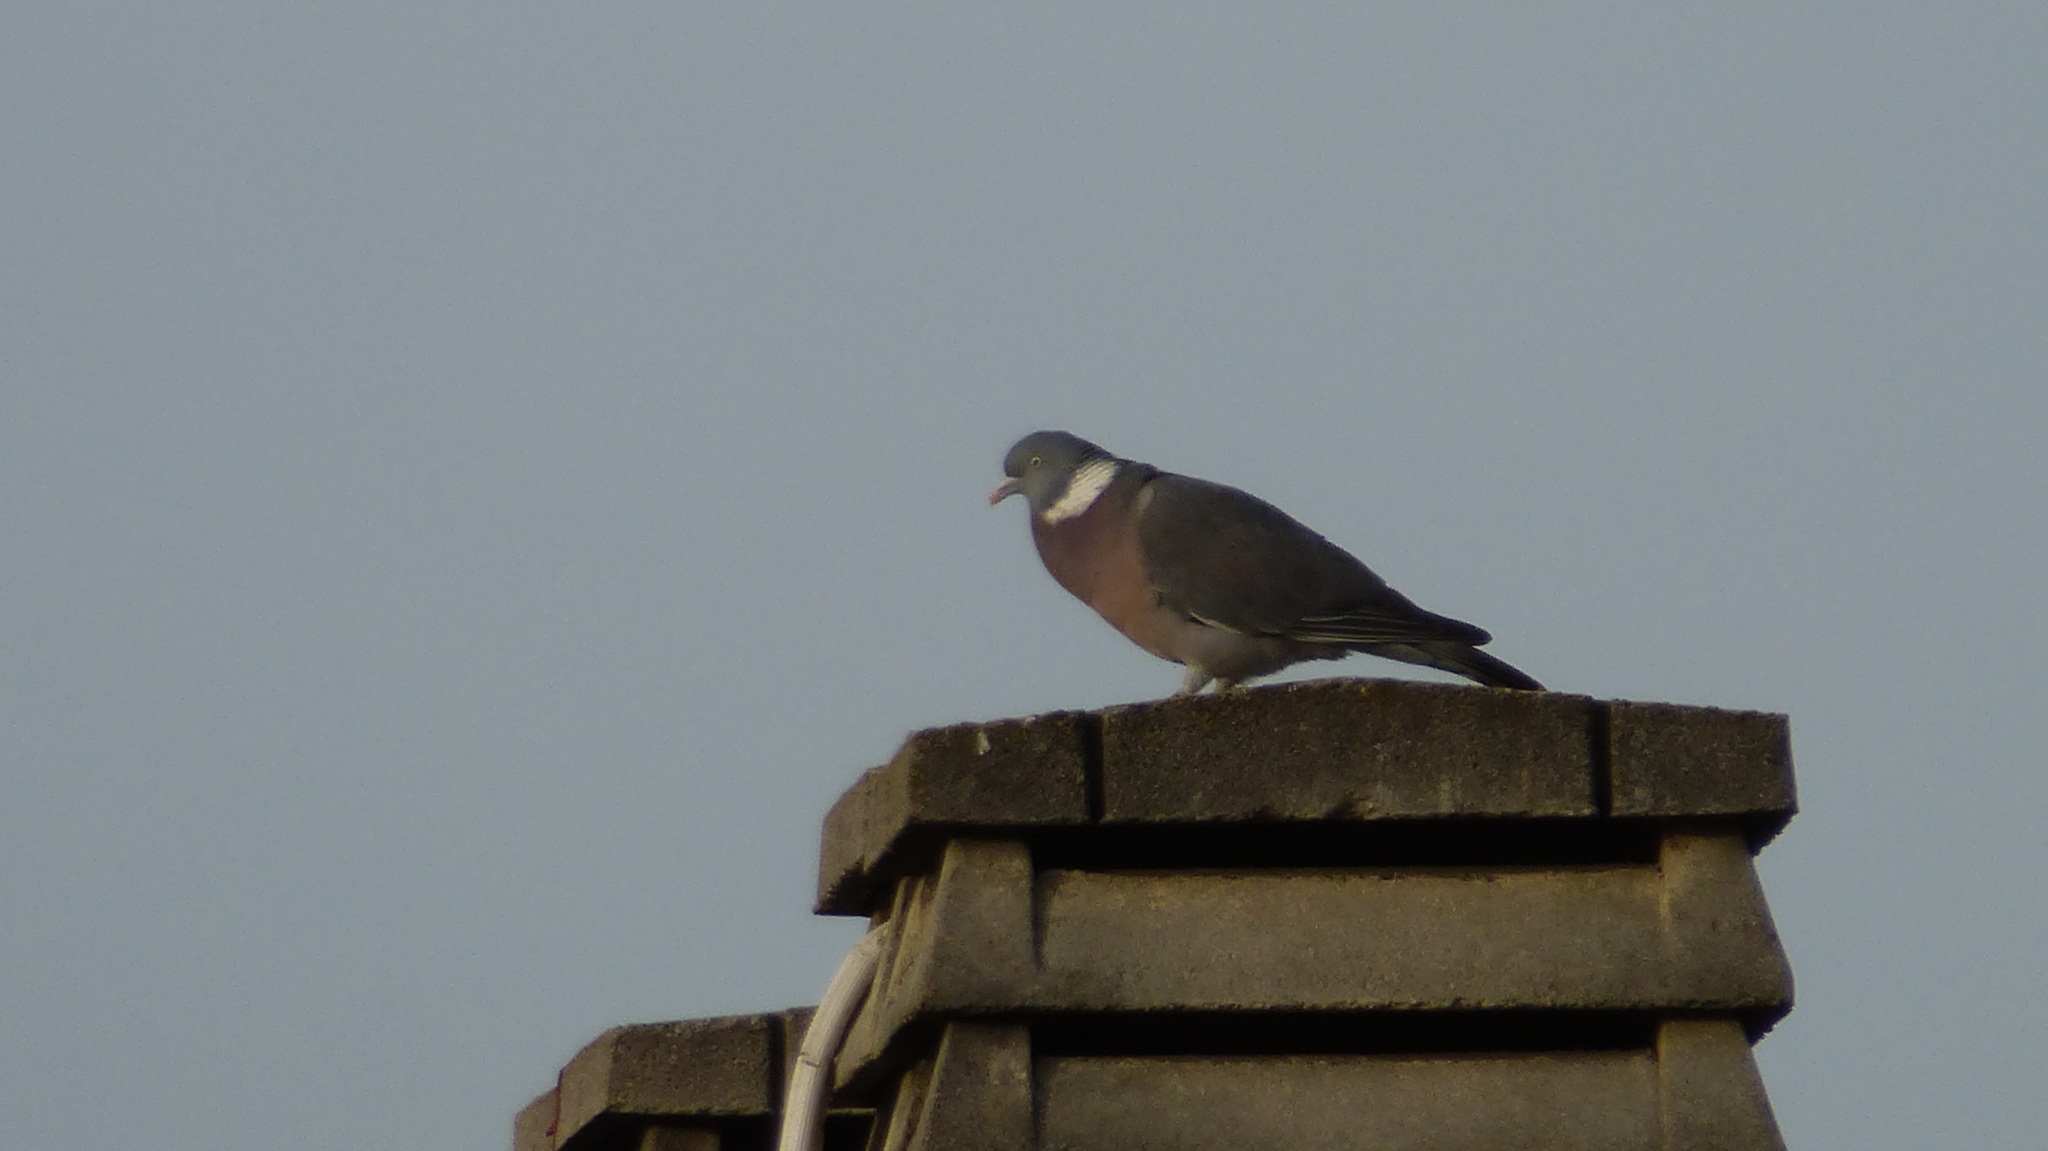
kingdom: Animalia
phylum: Chordata
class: Aves
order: Columbiformes
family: Columbidae
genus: Columba
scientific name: Columba palumbus
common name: Common wood pigeon
